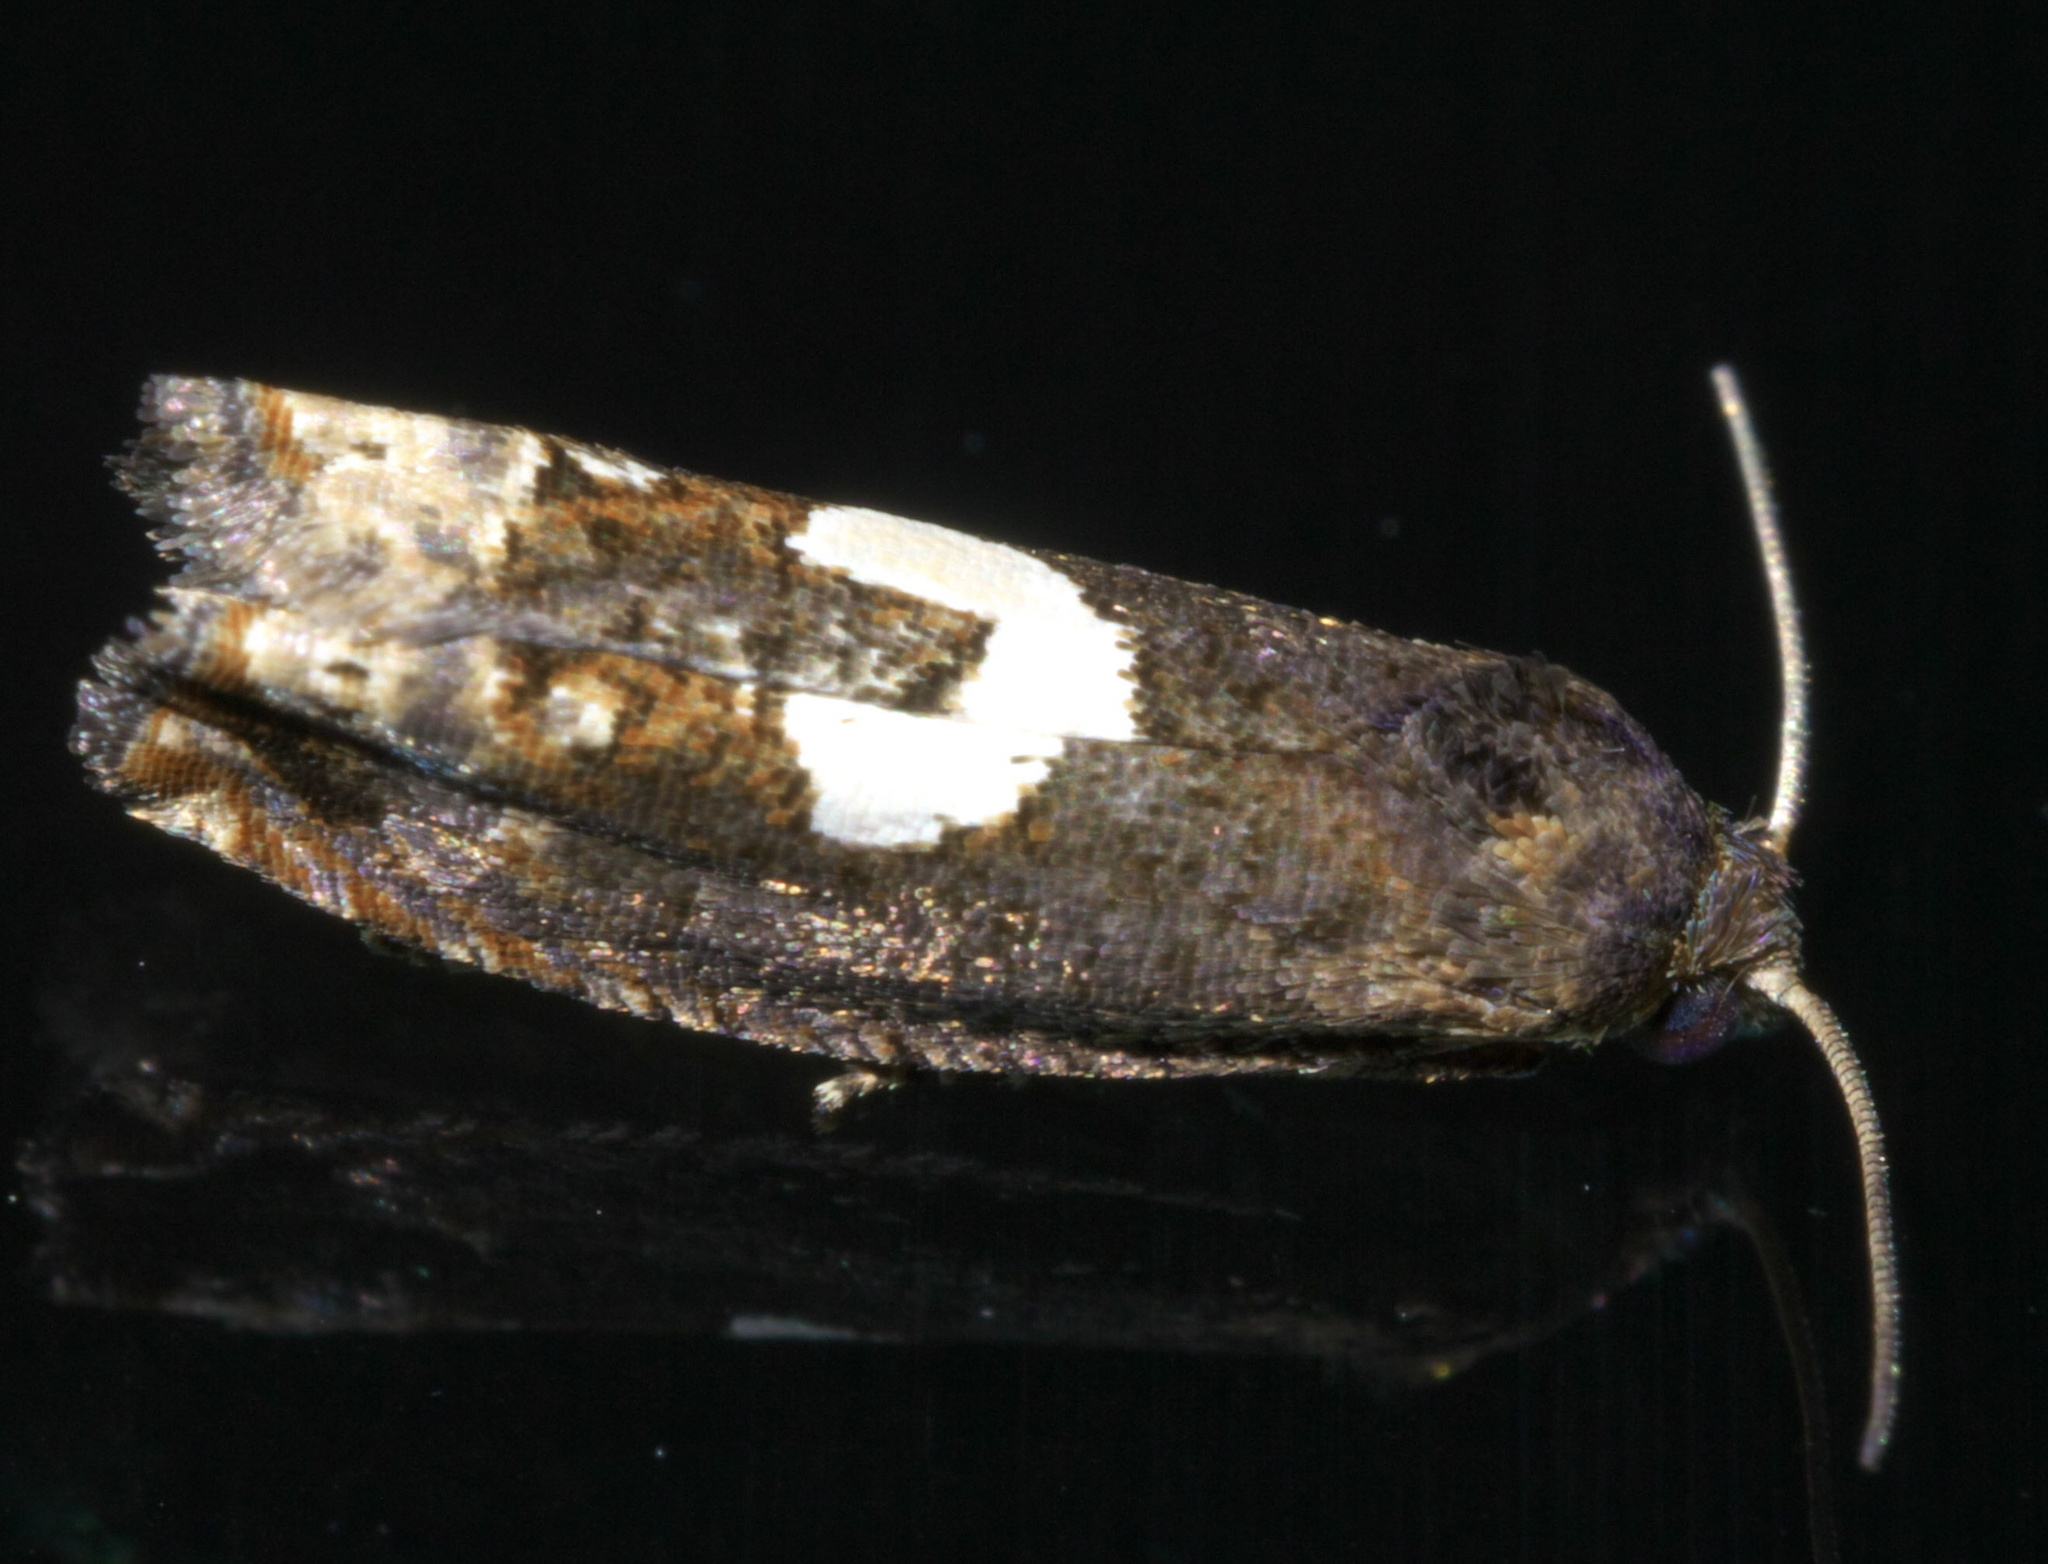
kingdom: Animalia
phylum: Arthropoda
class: Insecta
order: Lepidoptera
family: Tortricidae
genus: Epiblema
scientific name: Epiblema otiosana
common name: Bidens borer moth
